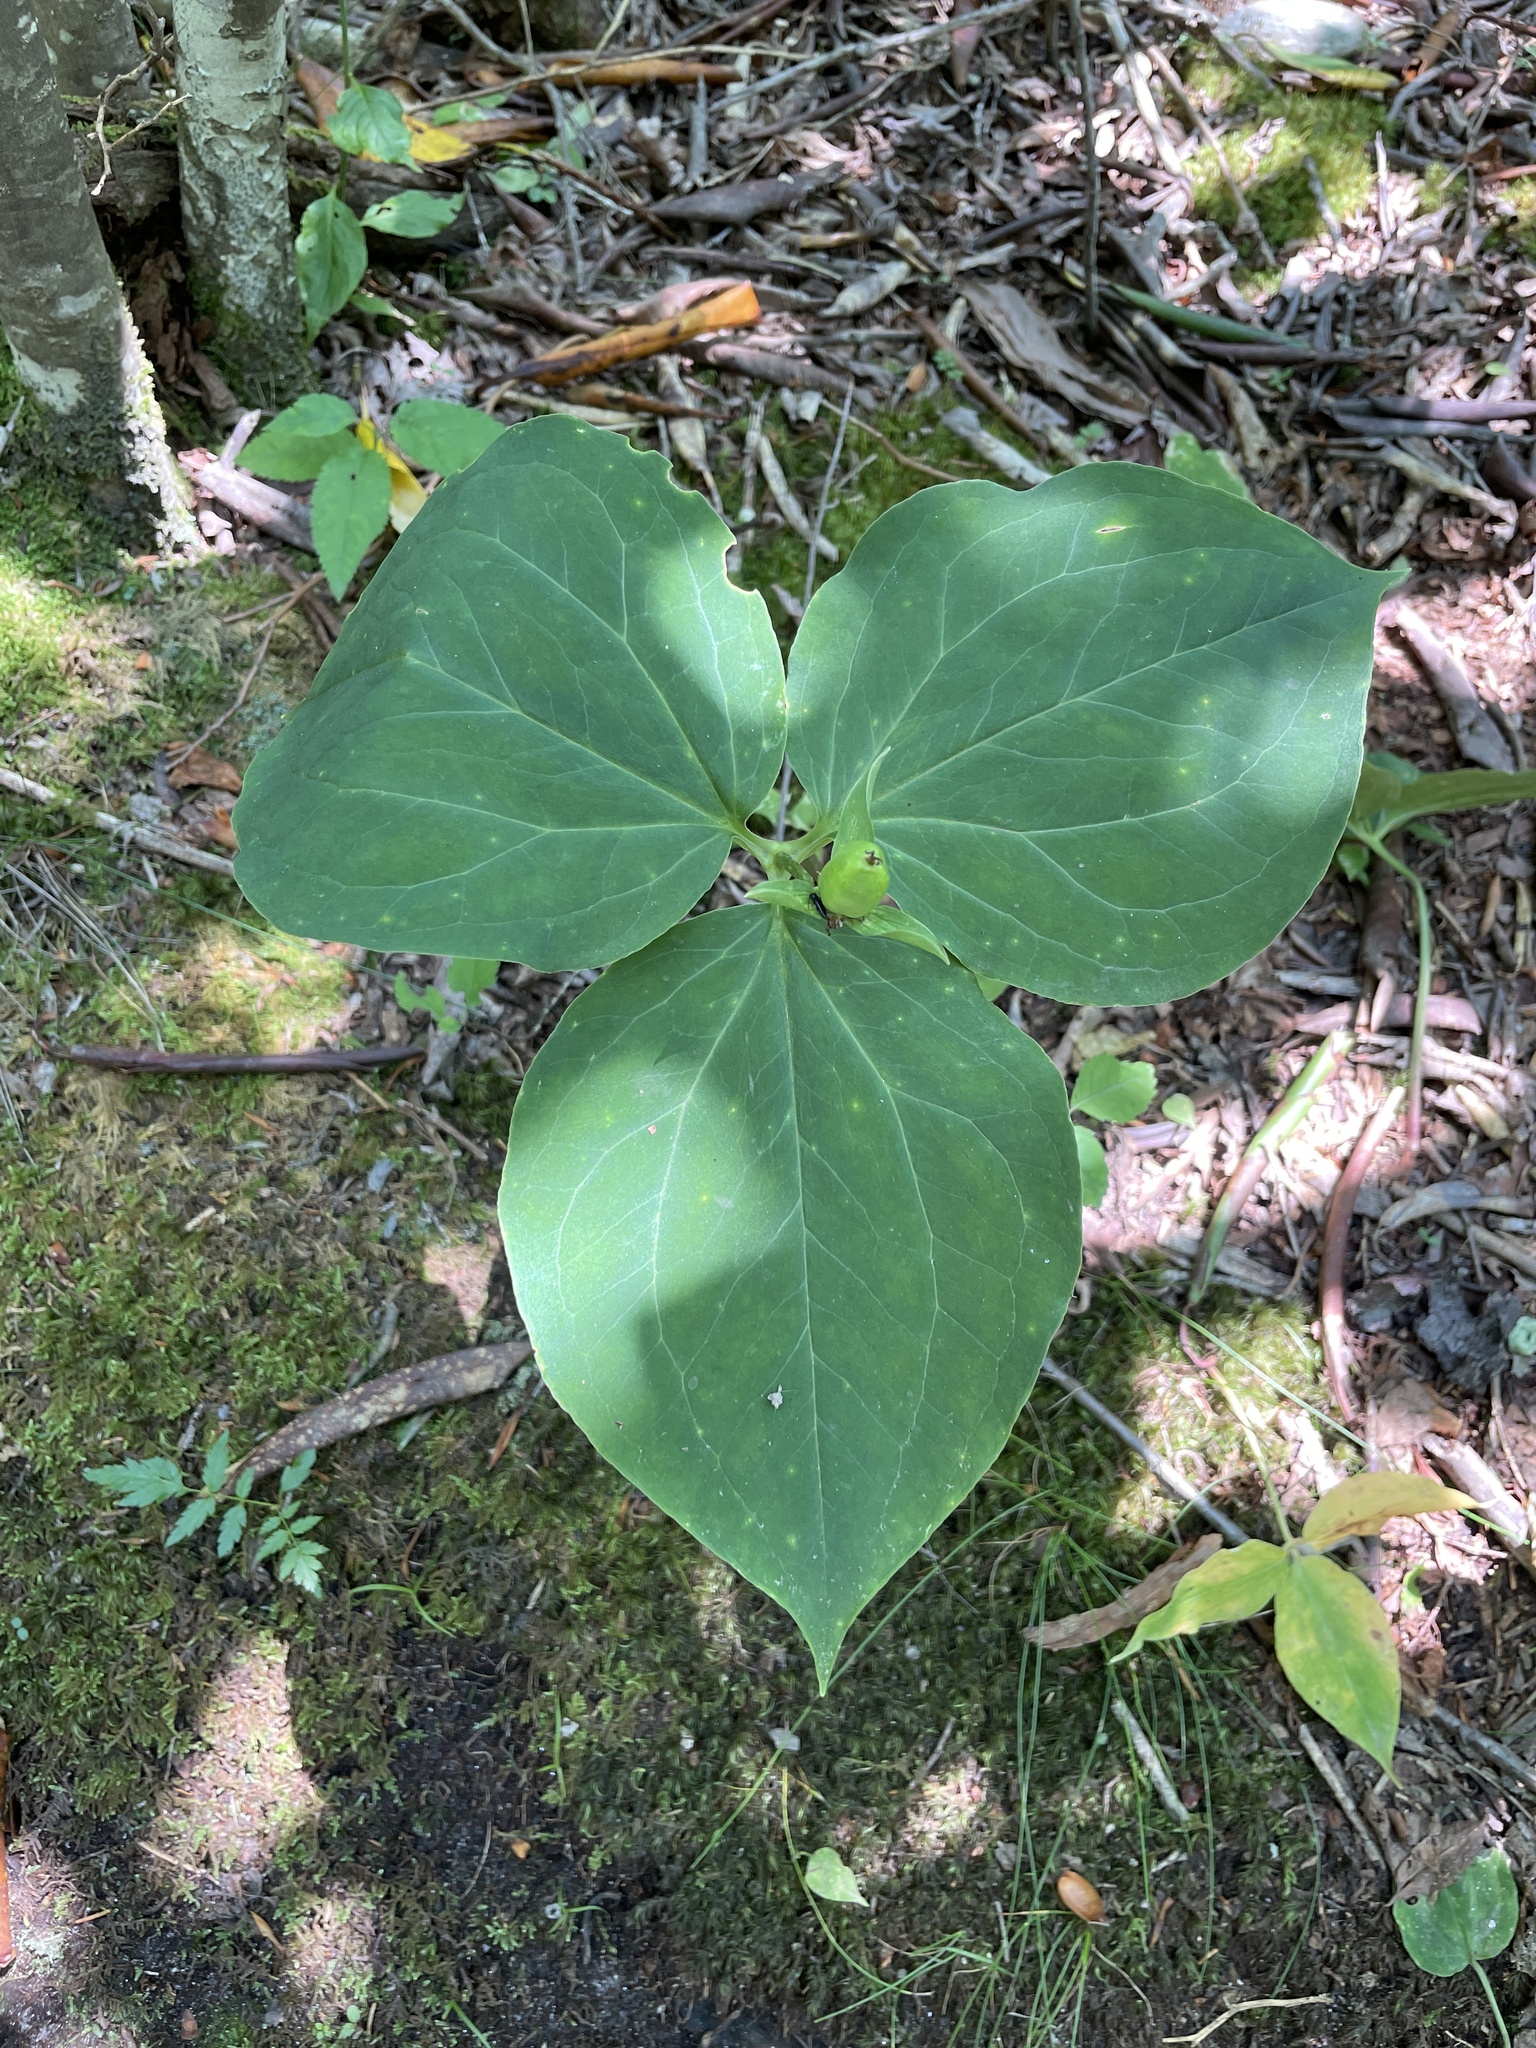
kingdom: Plantae
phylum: Tracheophyta
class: Liliopsida
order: Liliales
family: Melanthiaceae
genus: Trillium
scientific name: Trillium undulatum
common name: Paint trillium
